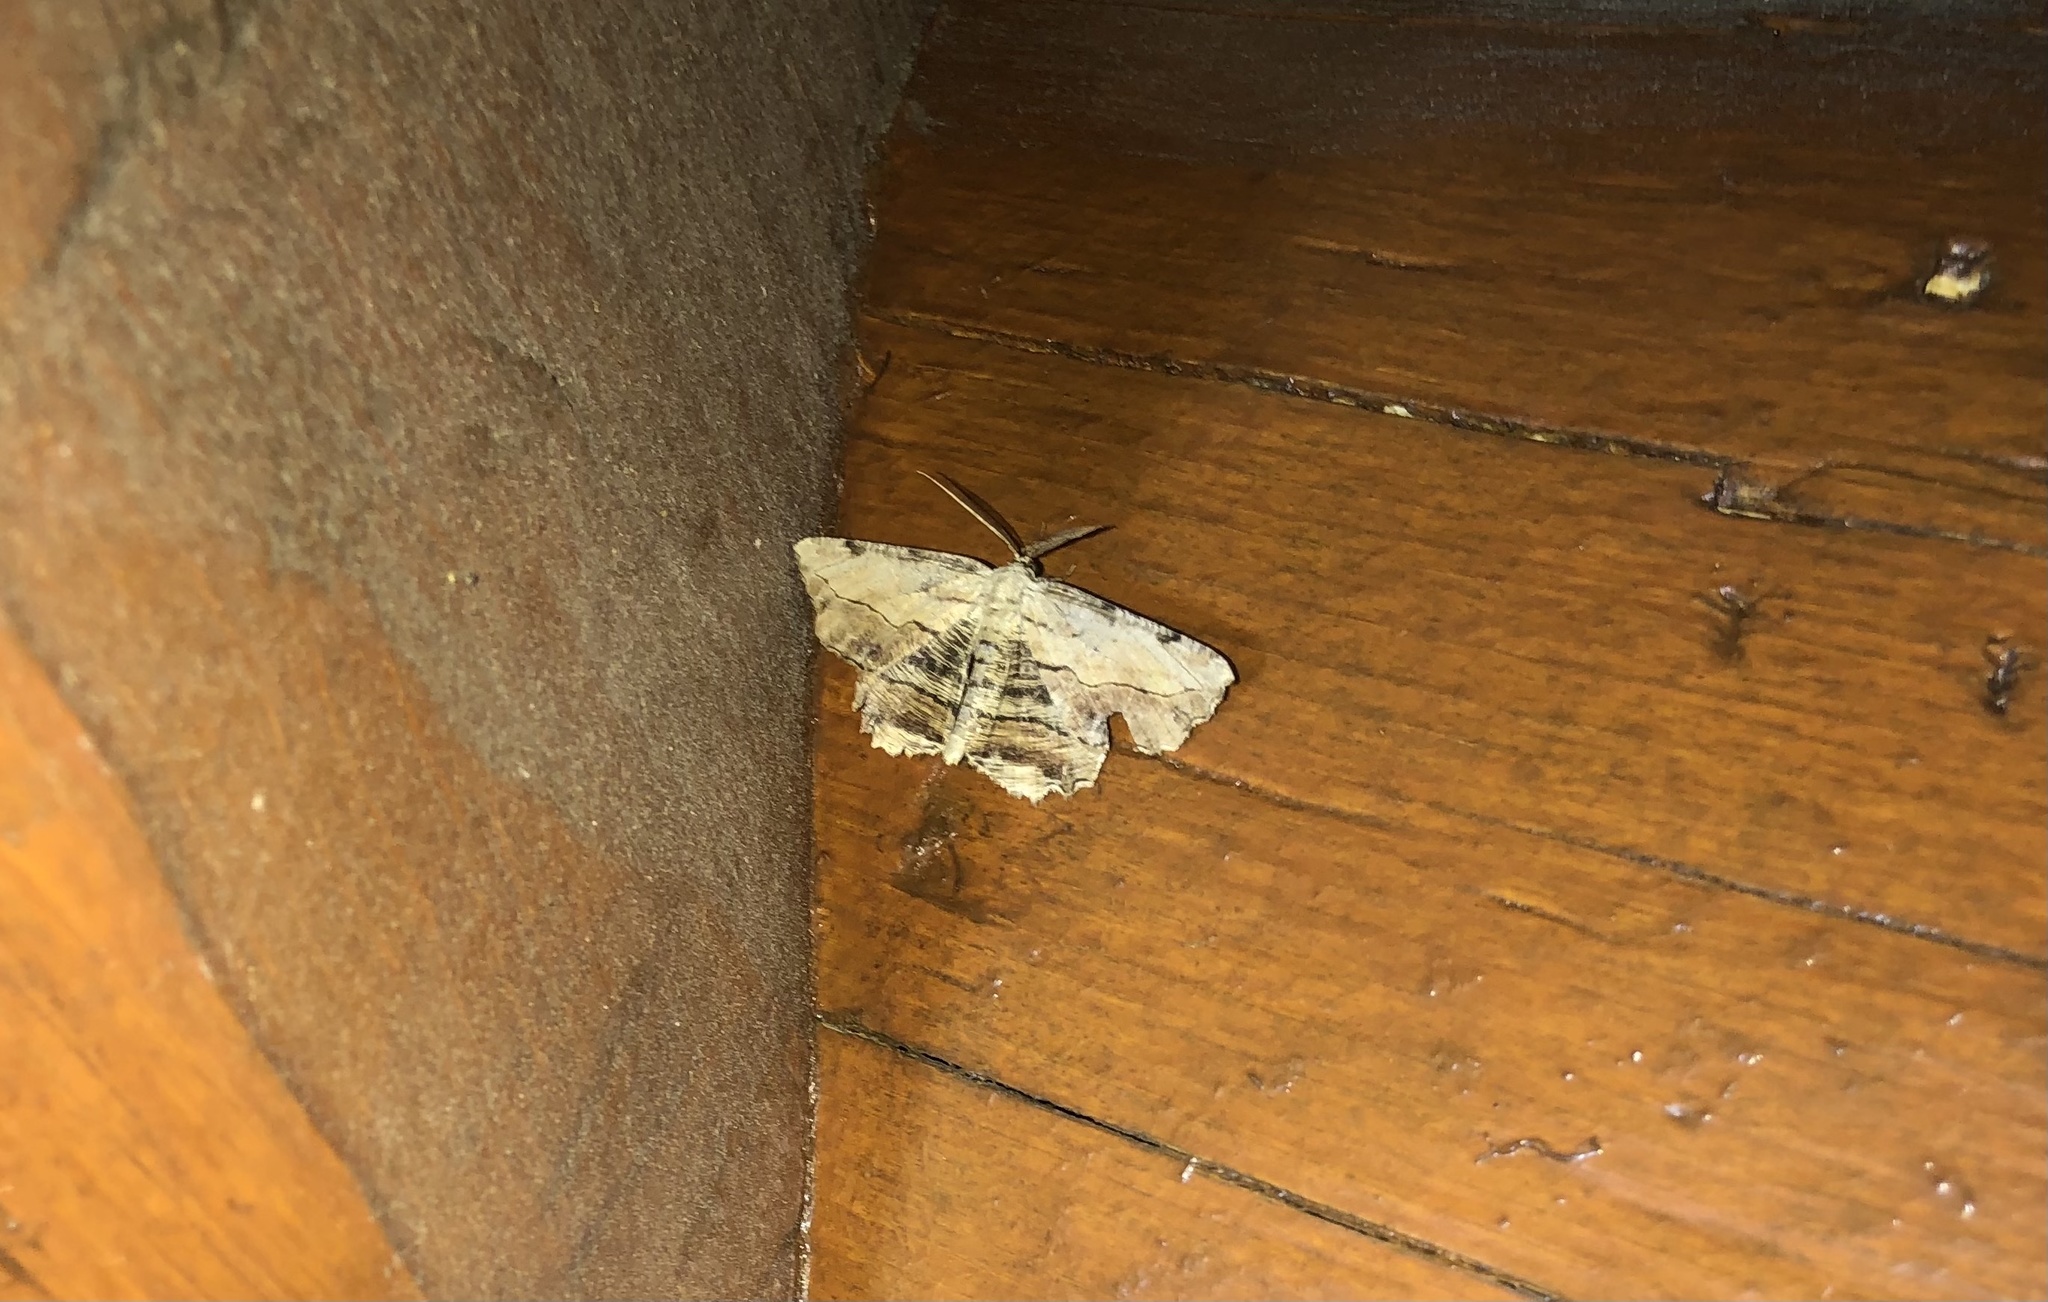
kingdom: Animalia
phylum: Arthropoda
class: Insecta
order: Lepidoptera
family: Geometridae
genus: Lytrosis
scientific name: Lytrosis unitaria
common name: Common lytrosis
